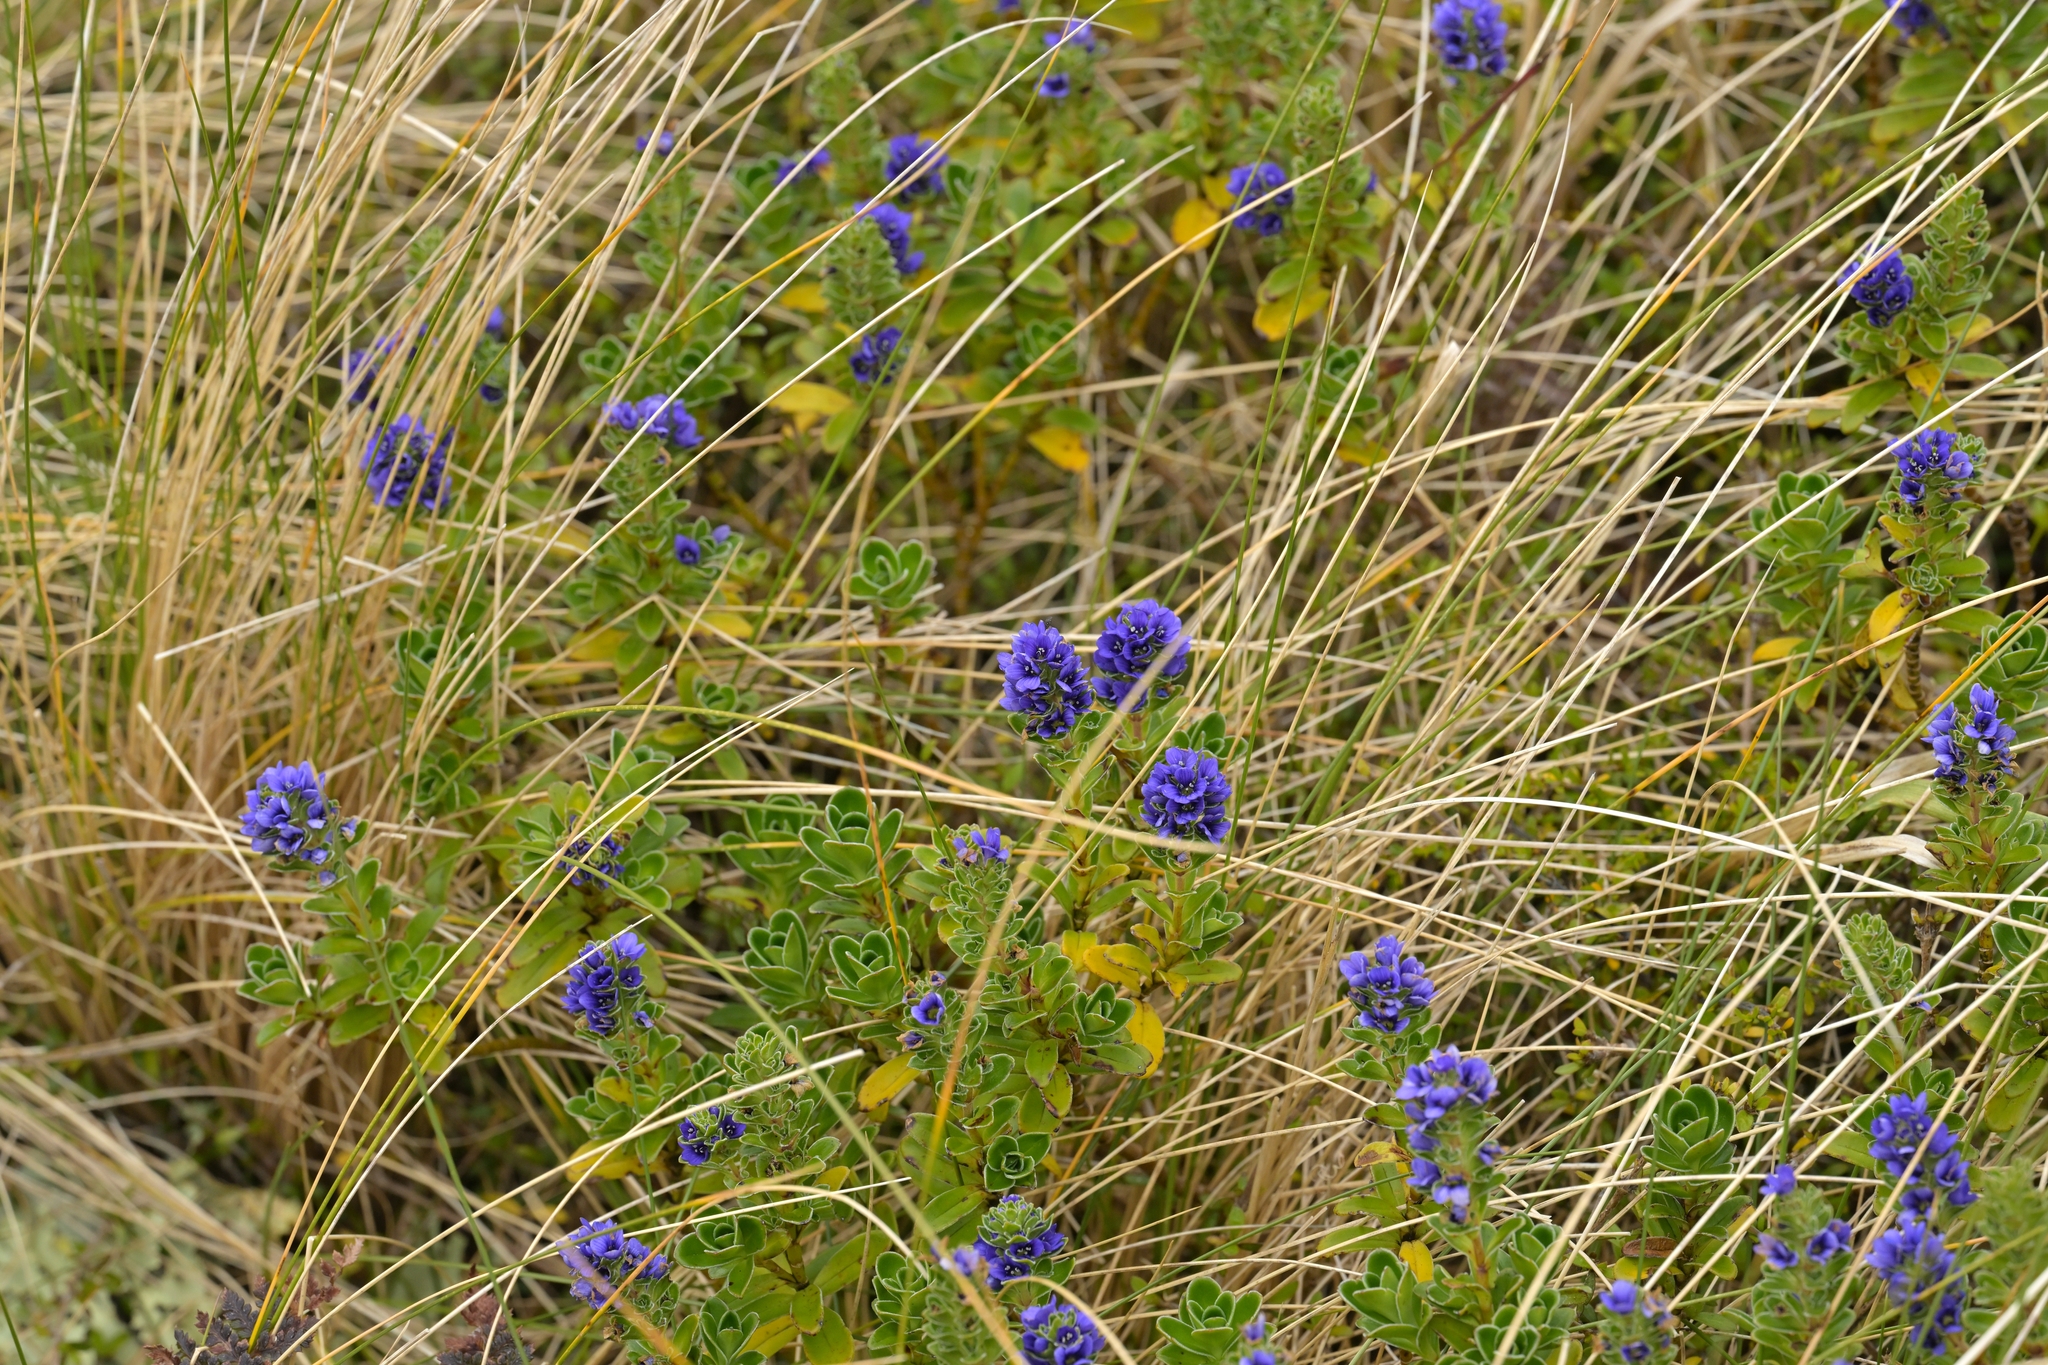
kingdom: Plantae
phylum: Tracheophyta
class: Magnoliopsida
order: Lamiales
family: Plantaginaceae
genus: Veronica
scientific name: Veronica benthamii
